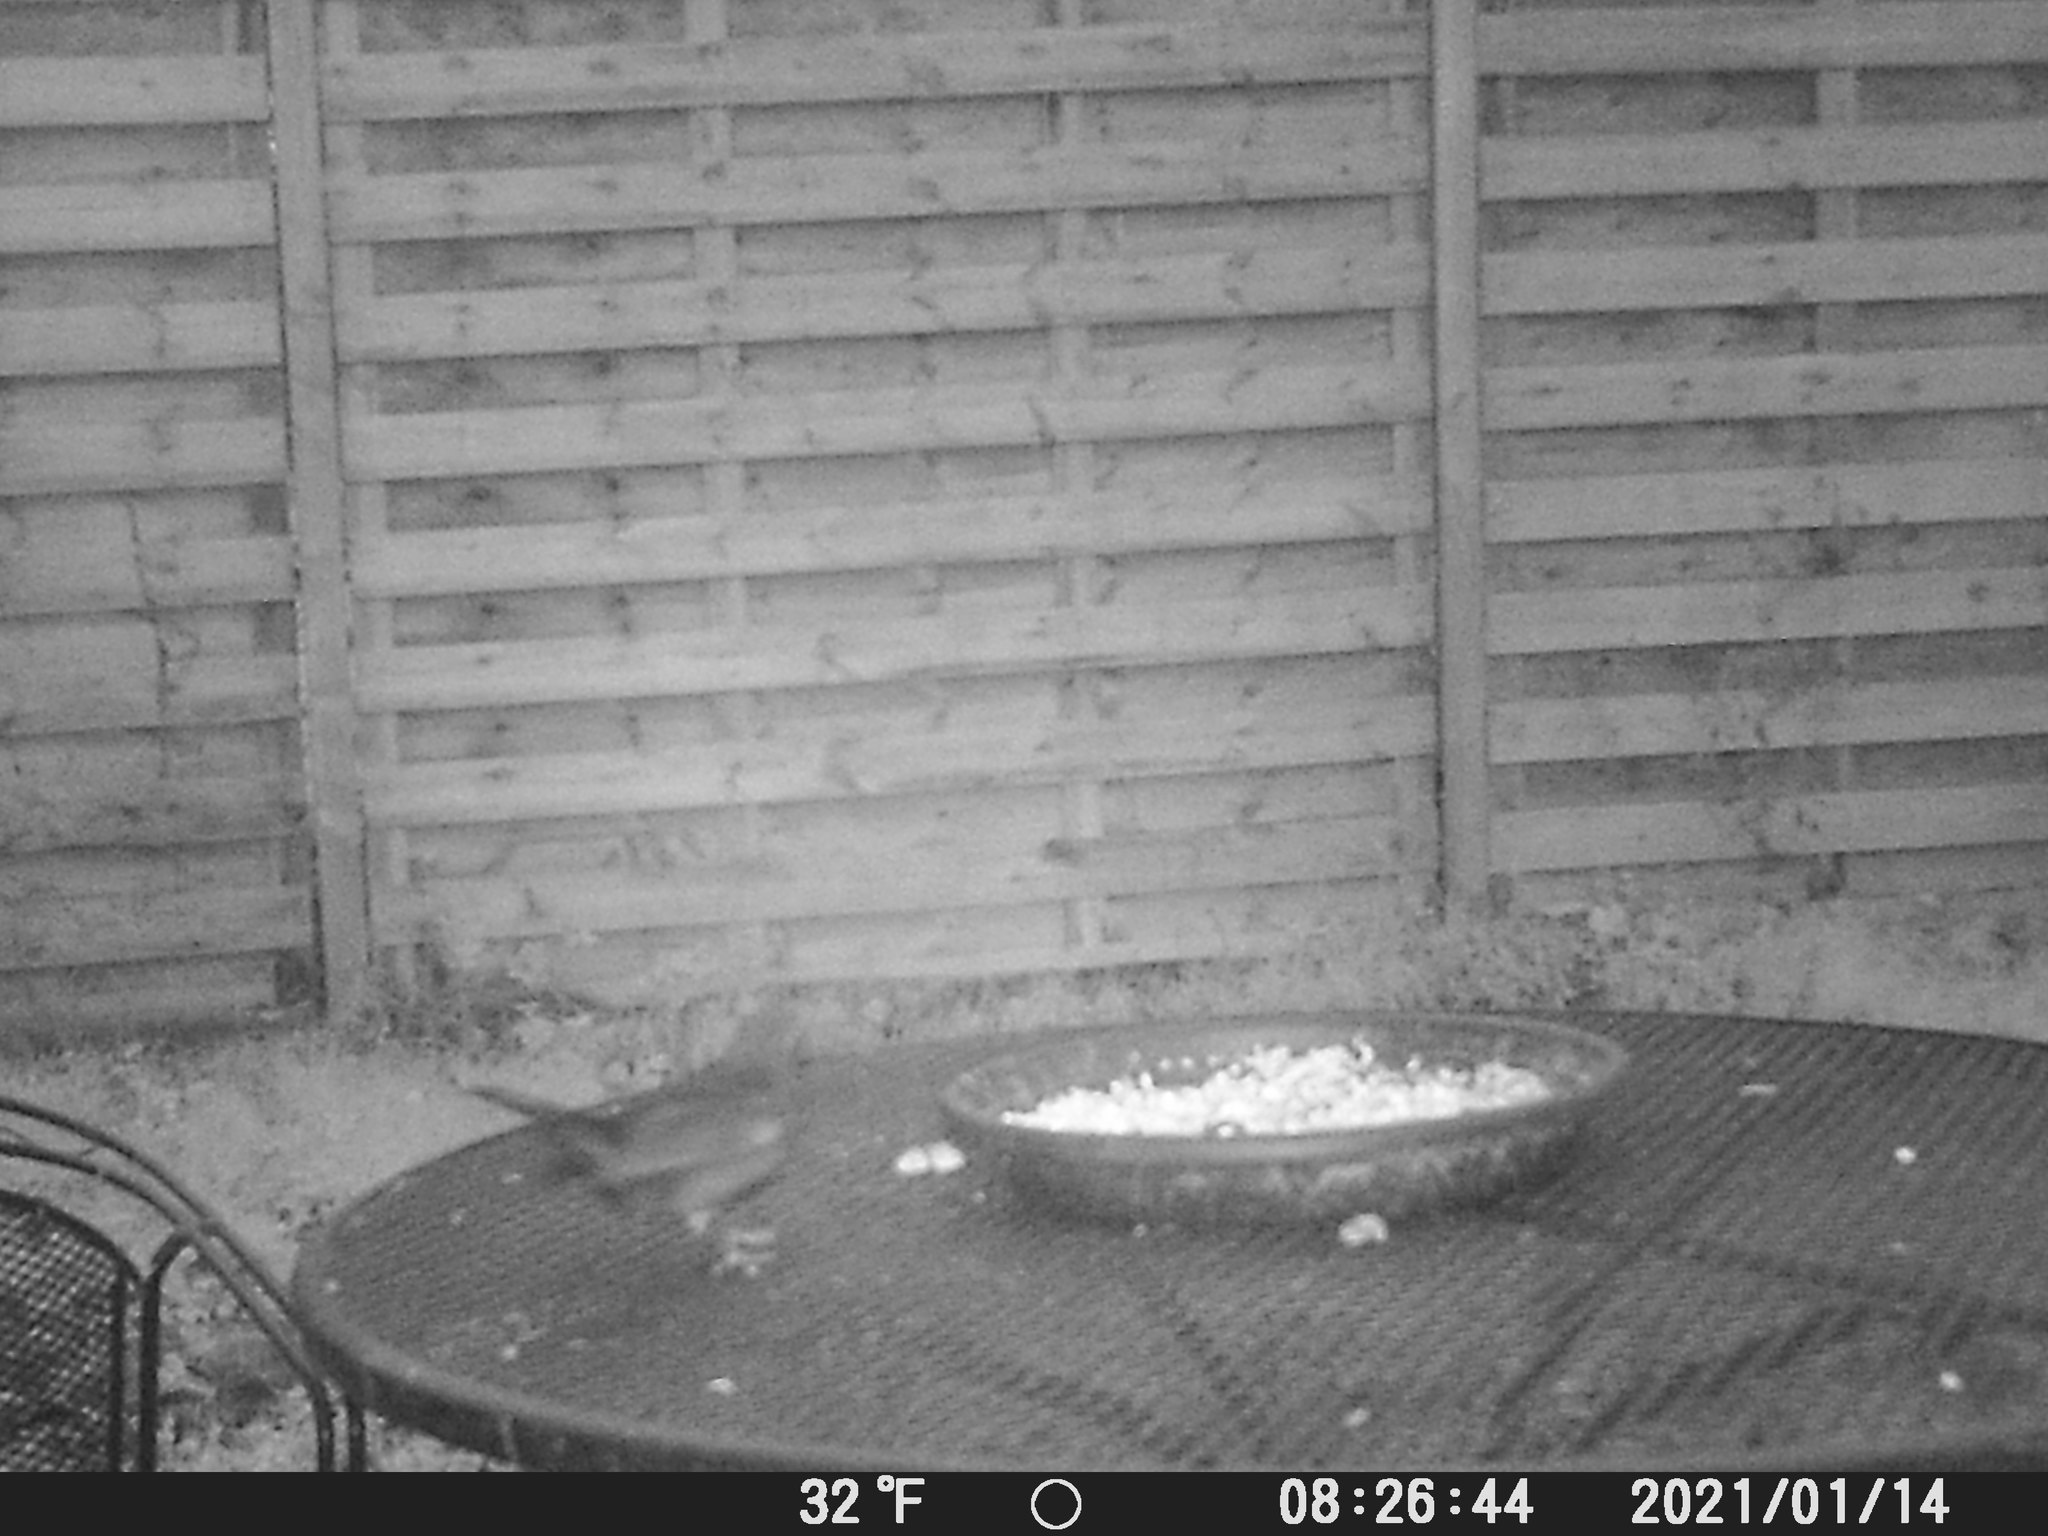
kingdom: Animalia
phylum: Chordata
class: Aves
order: Passeriformes
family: Turdidae
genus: Turdus
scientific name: Turdus merula
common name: Common blackbird
